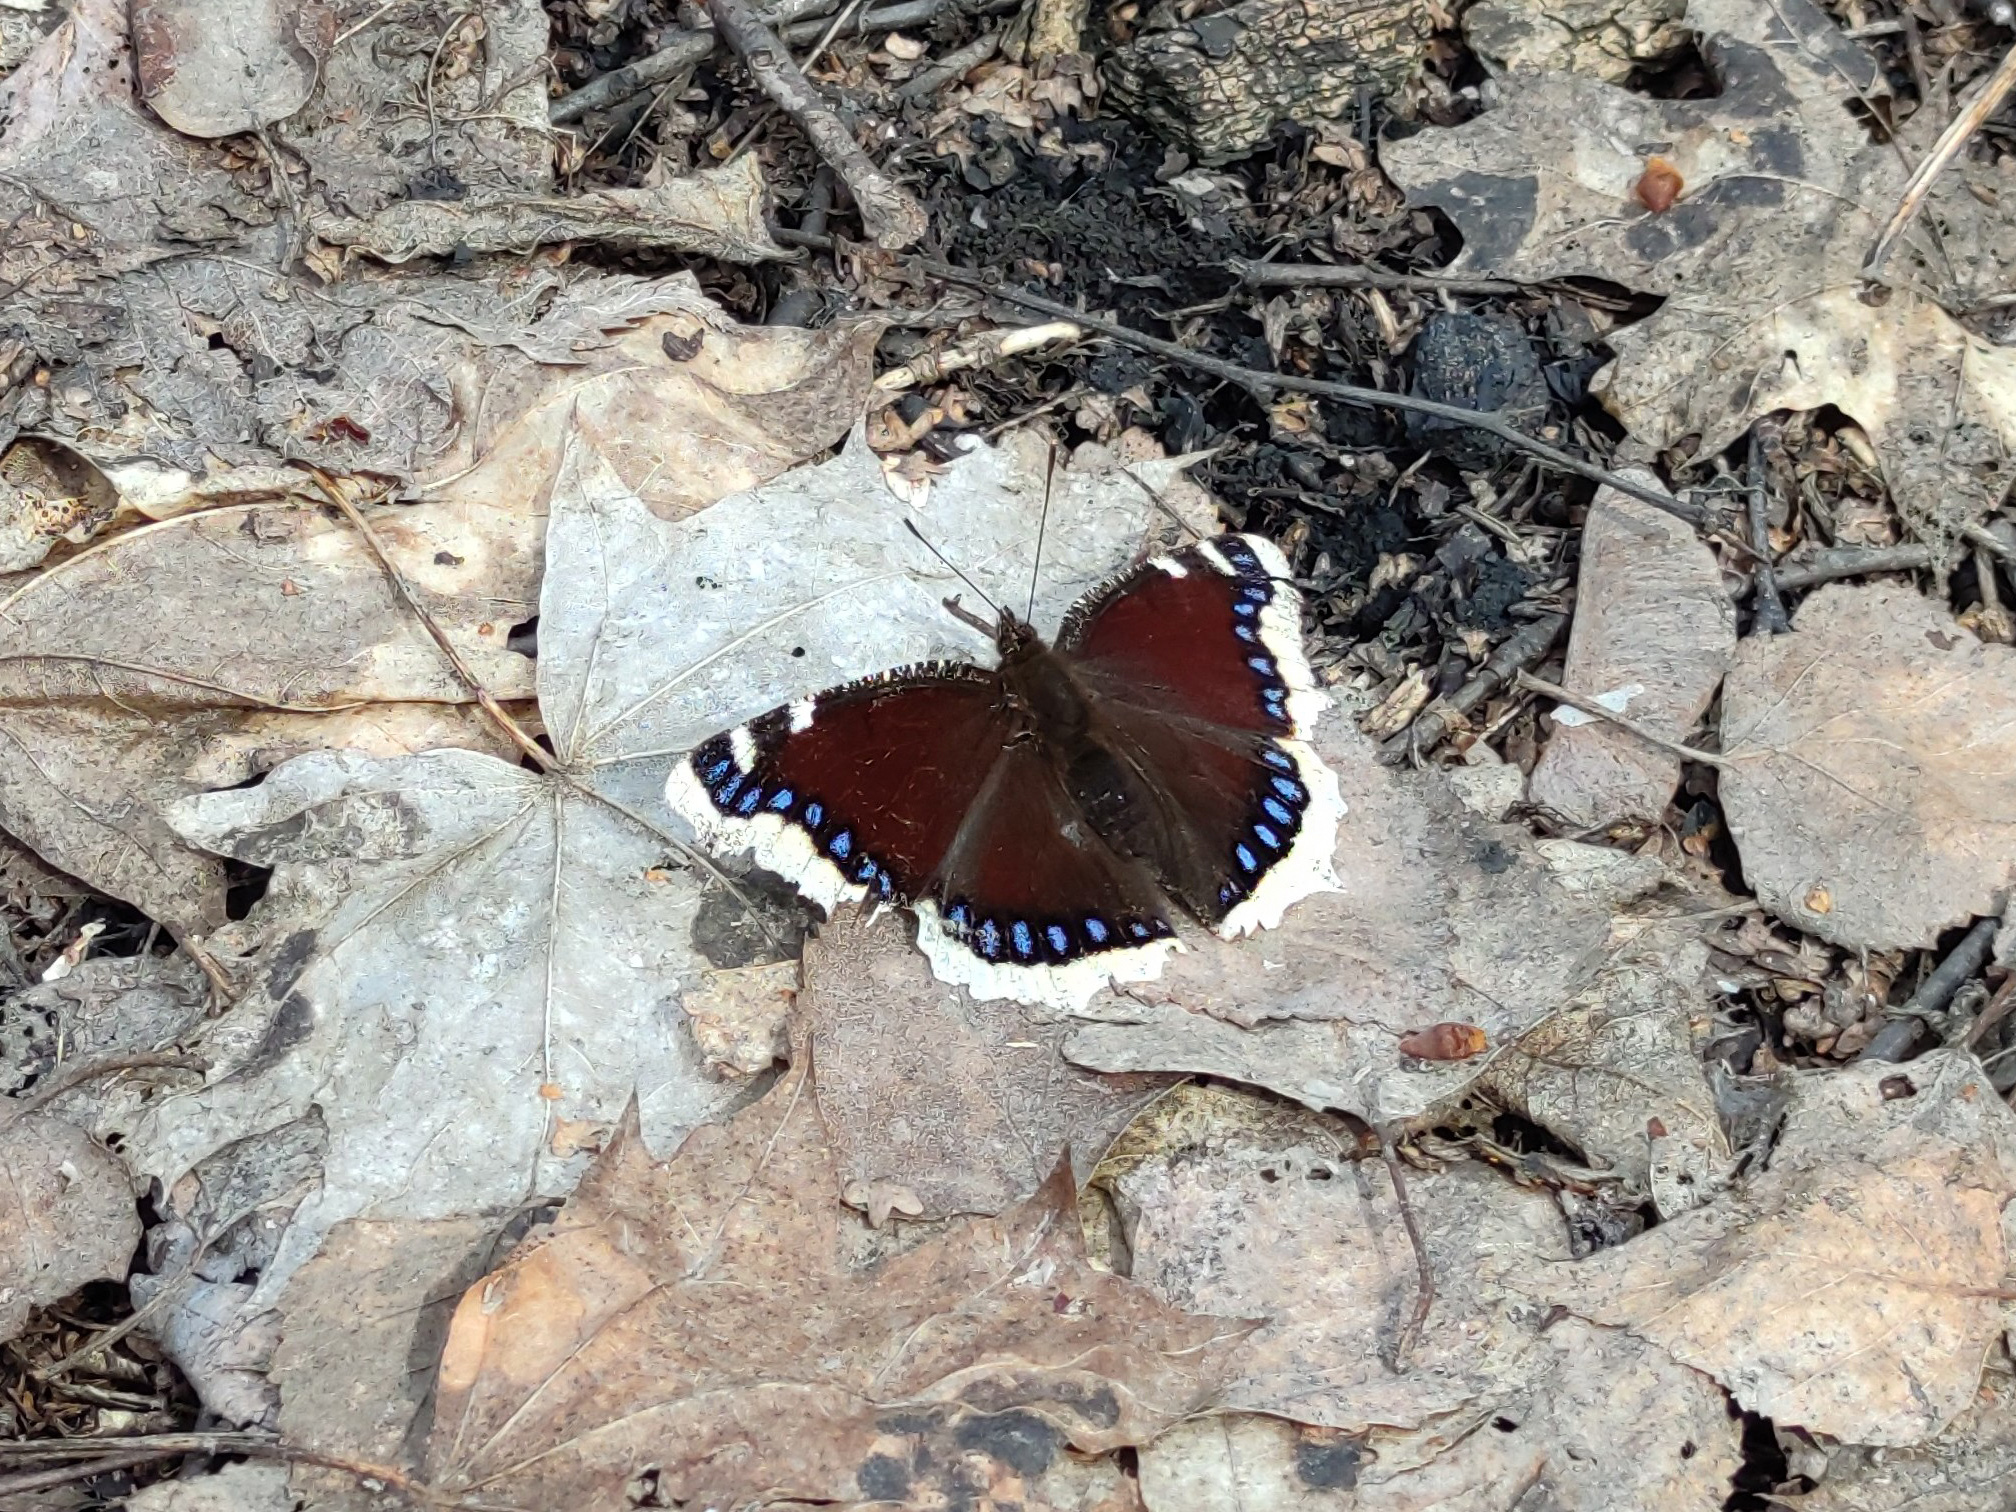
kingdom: Animalia
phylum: Arthropoda
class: Insecta
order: Lepidoptera
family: Nymphalidae
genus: Nymphalis
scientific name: Nymphalis antiopa
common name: Camberwell beauty
